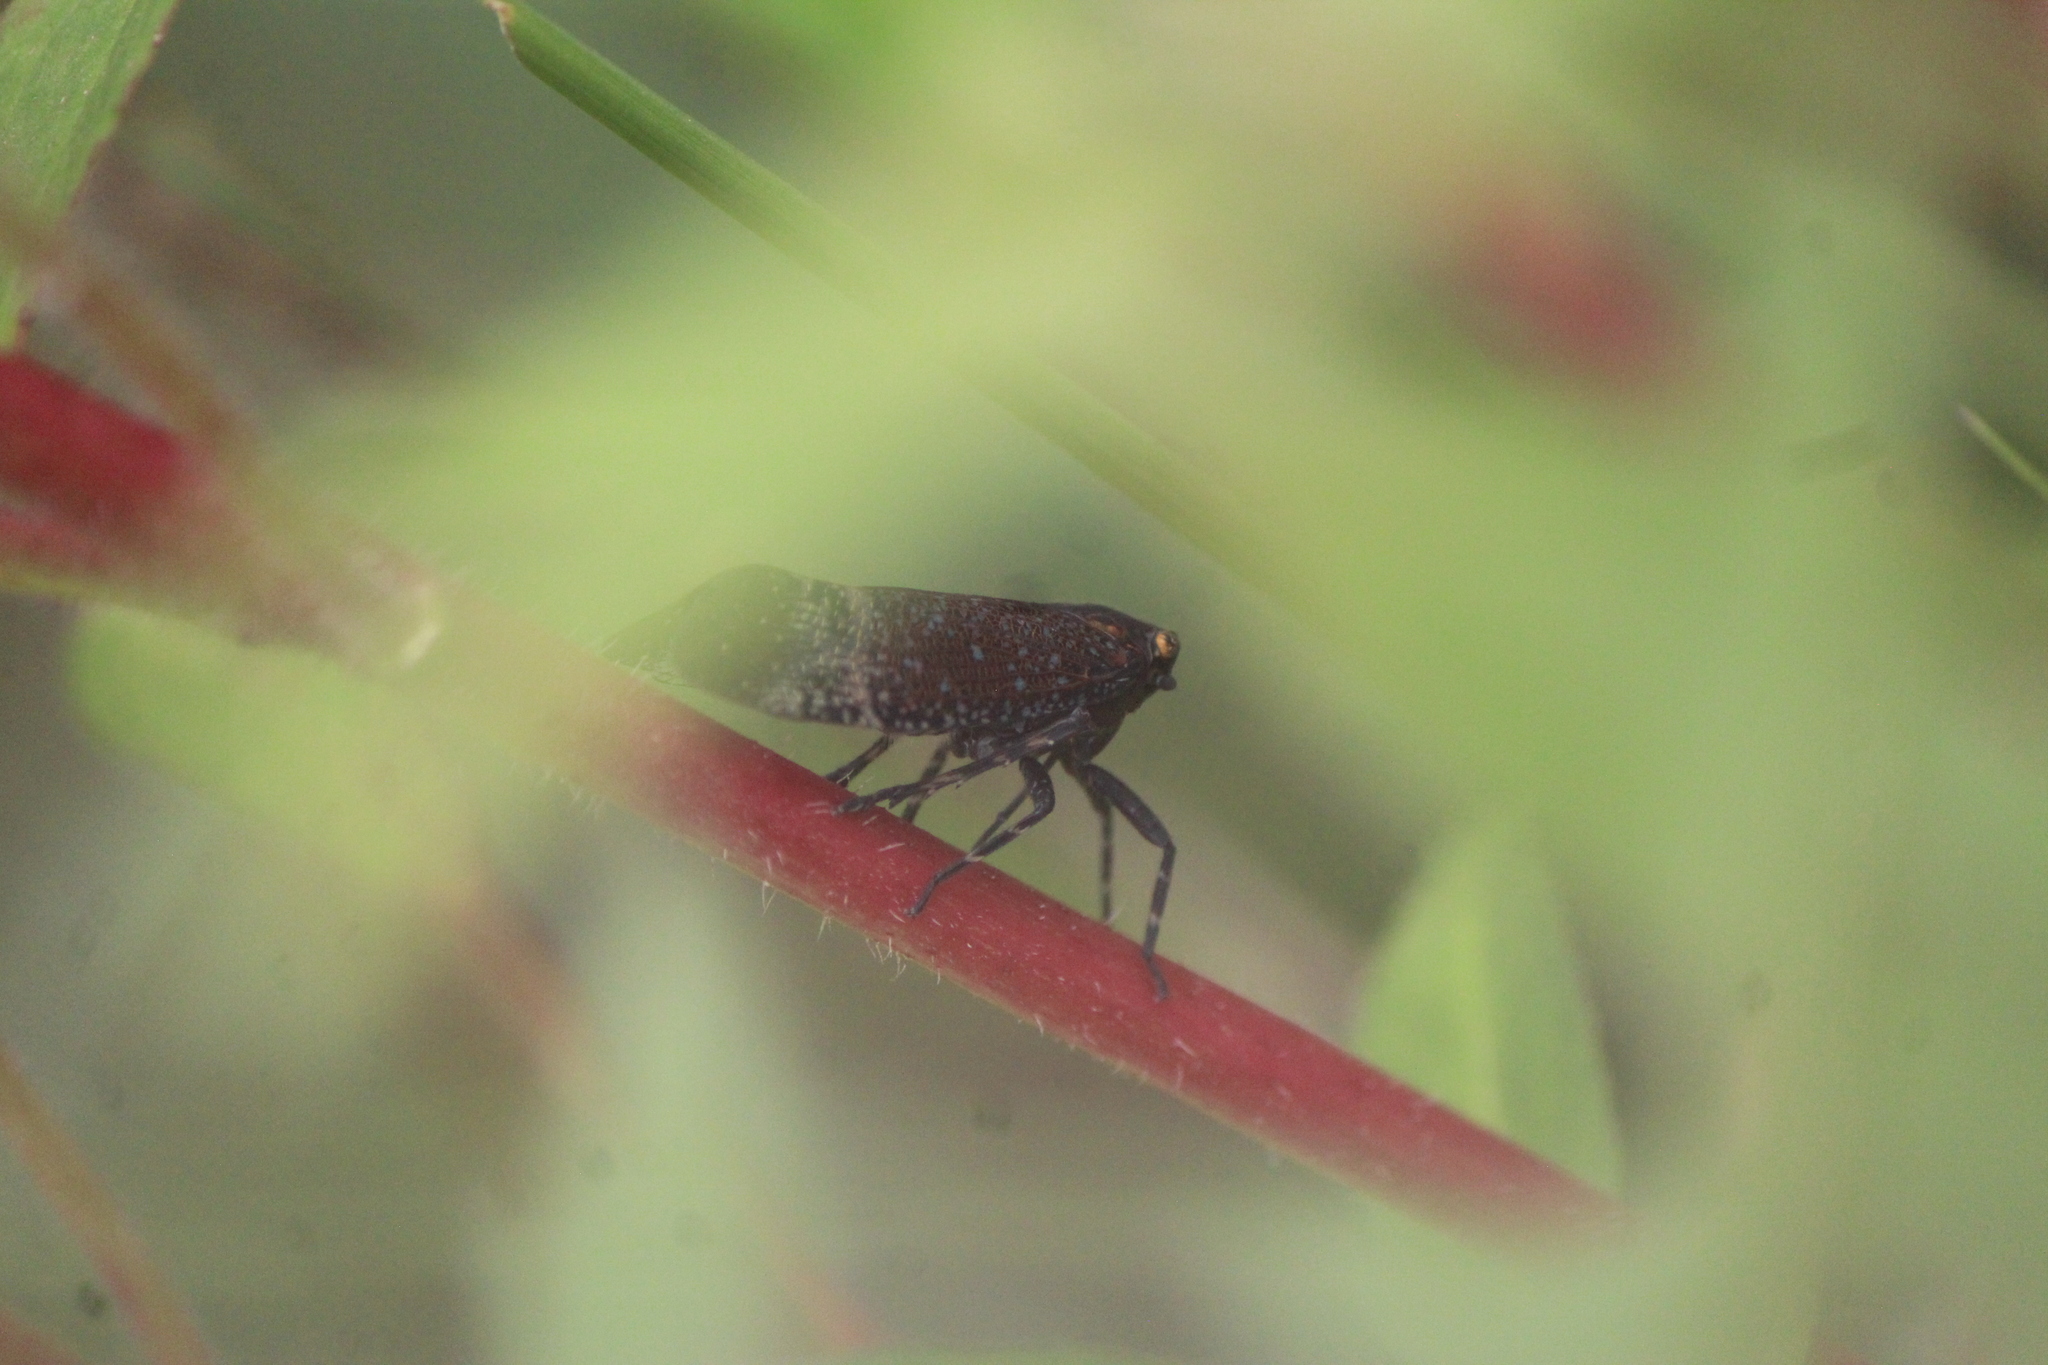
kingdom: Animalia
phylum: Arthropoda
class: Insecta
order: Hemiptera
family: Fulgoridae
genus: Alaruasa
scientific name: Alaruasa lepida
